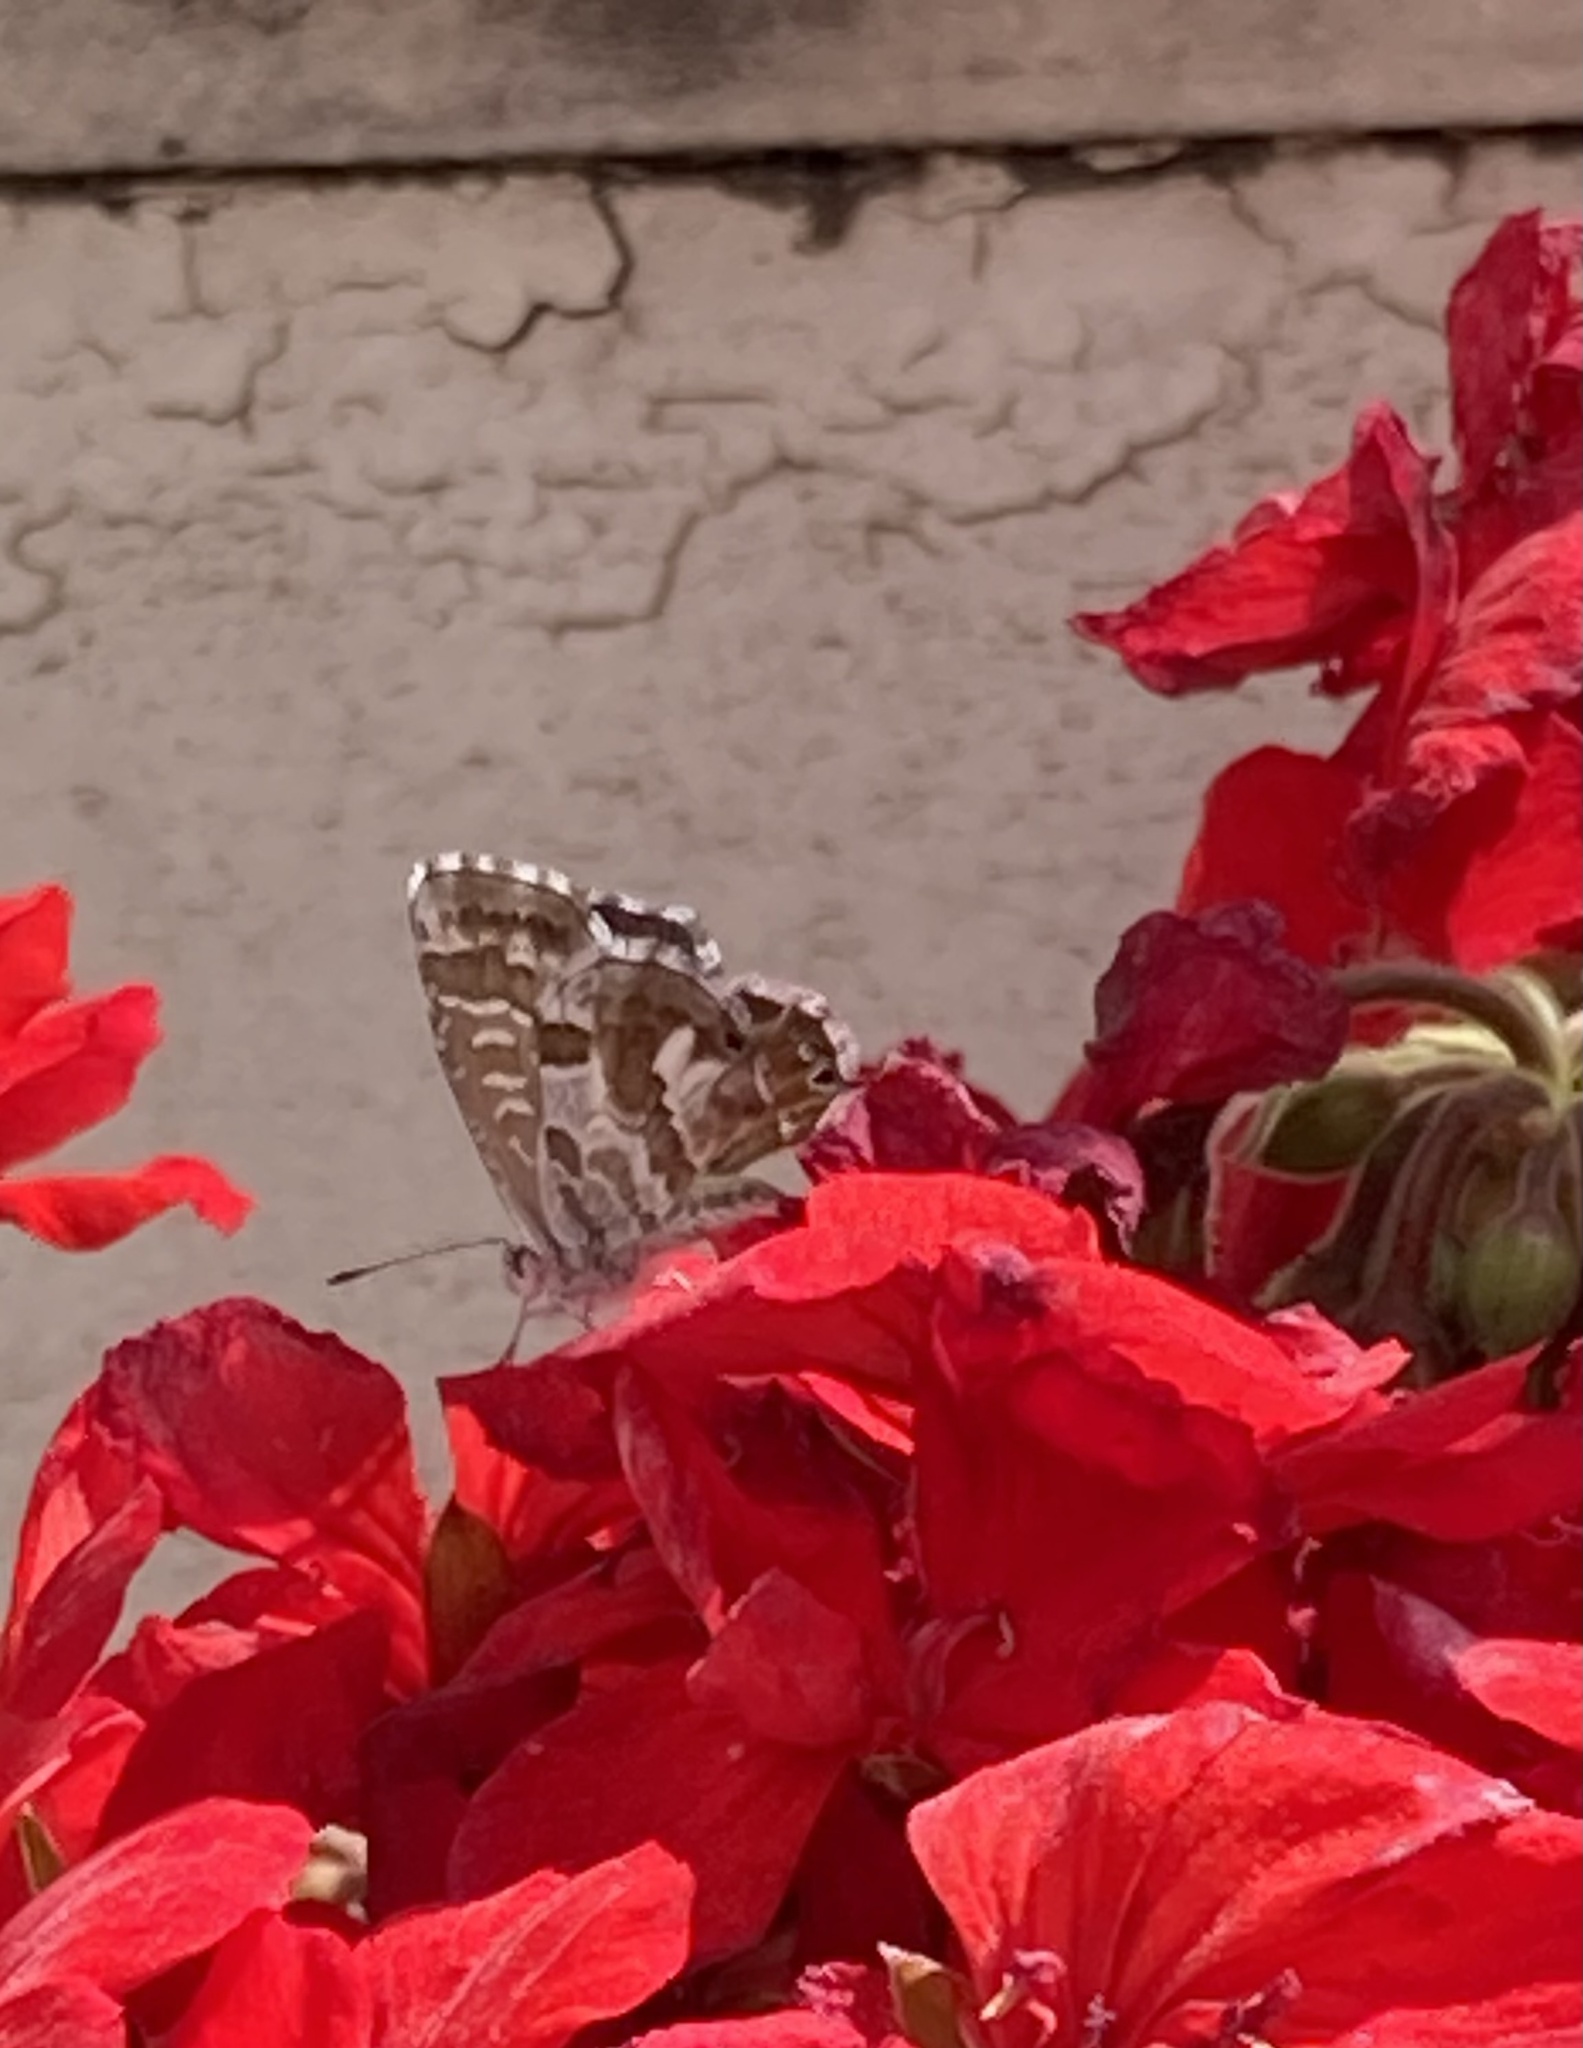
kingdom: Animalia
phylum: Arthropoda
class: Insecta
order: Lepidoptera
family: Lycaenidae
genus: Cacyreus
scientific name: Cacyreus marshalli
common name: Geranium bronze
